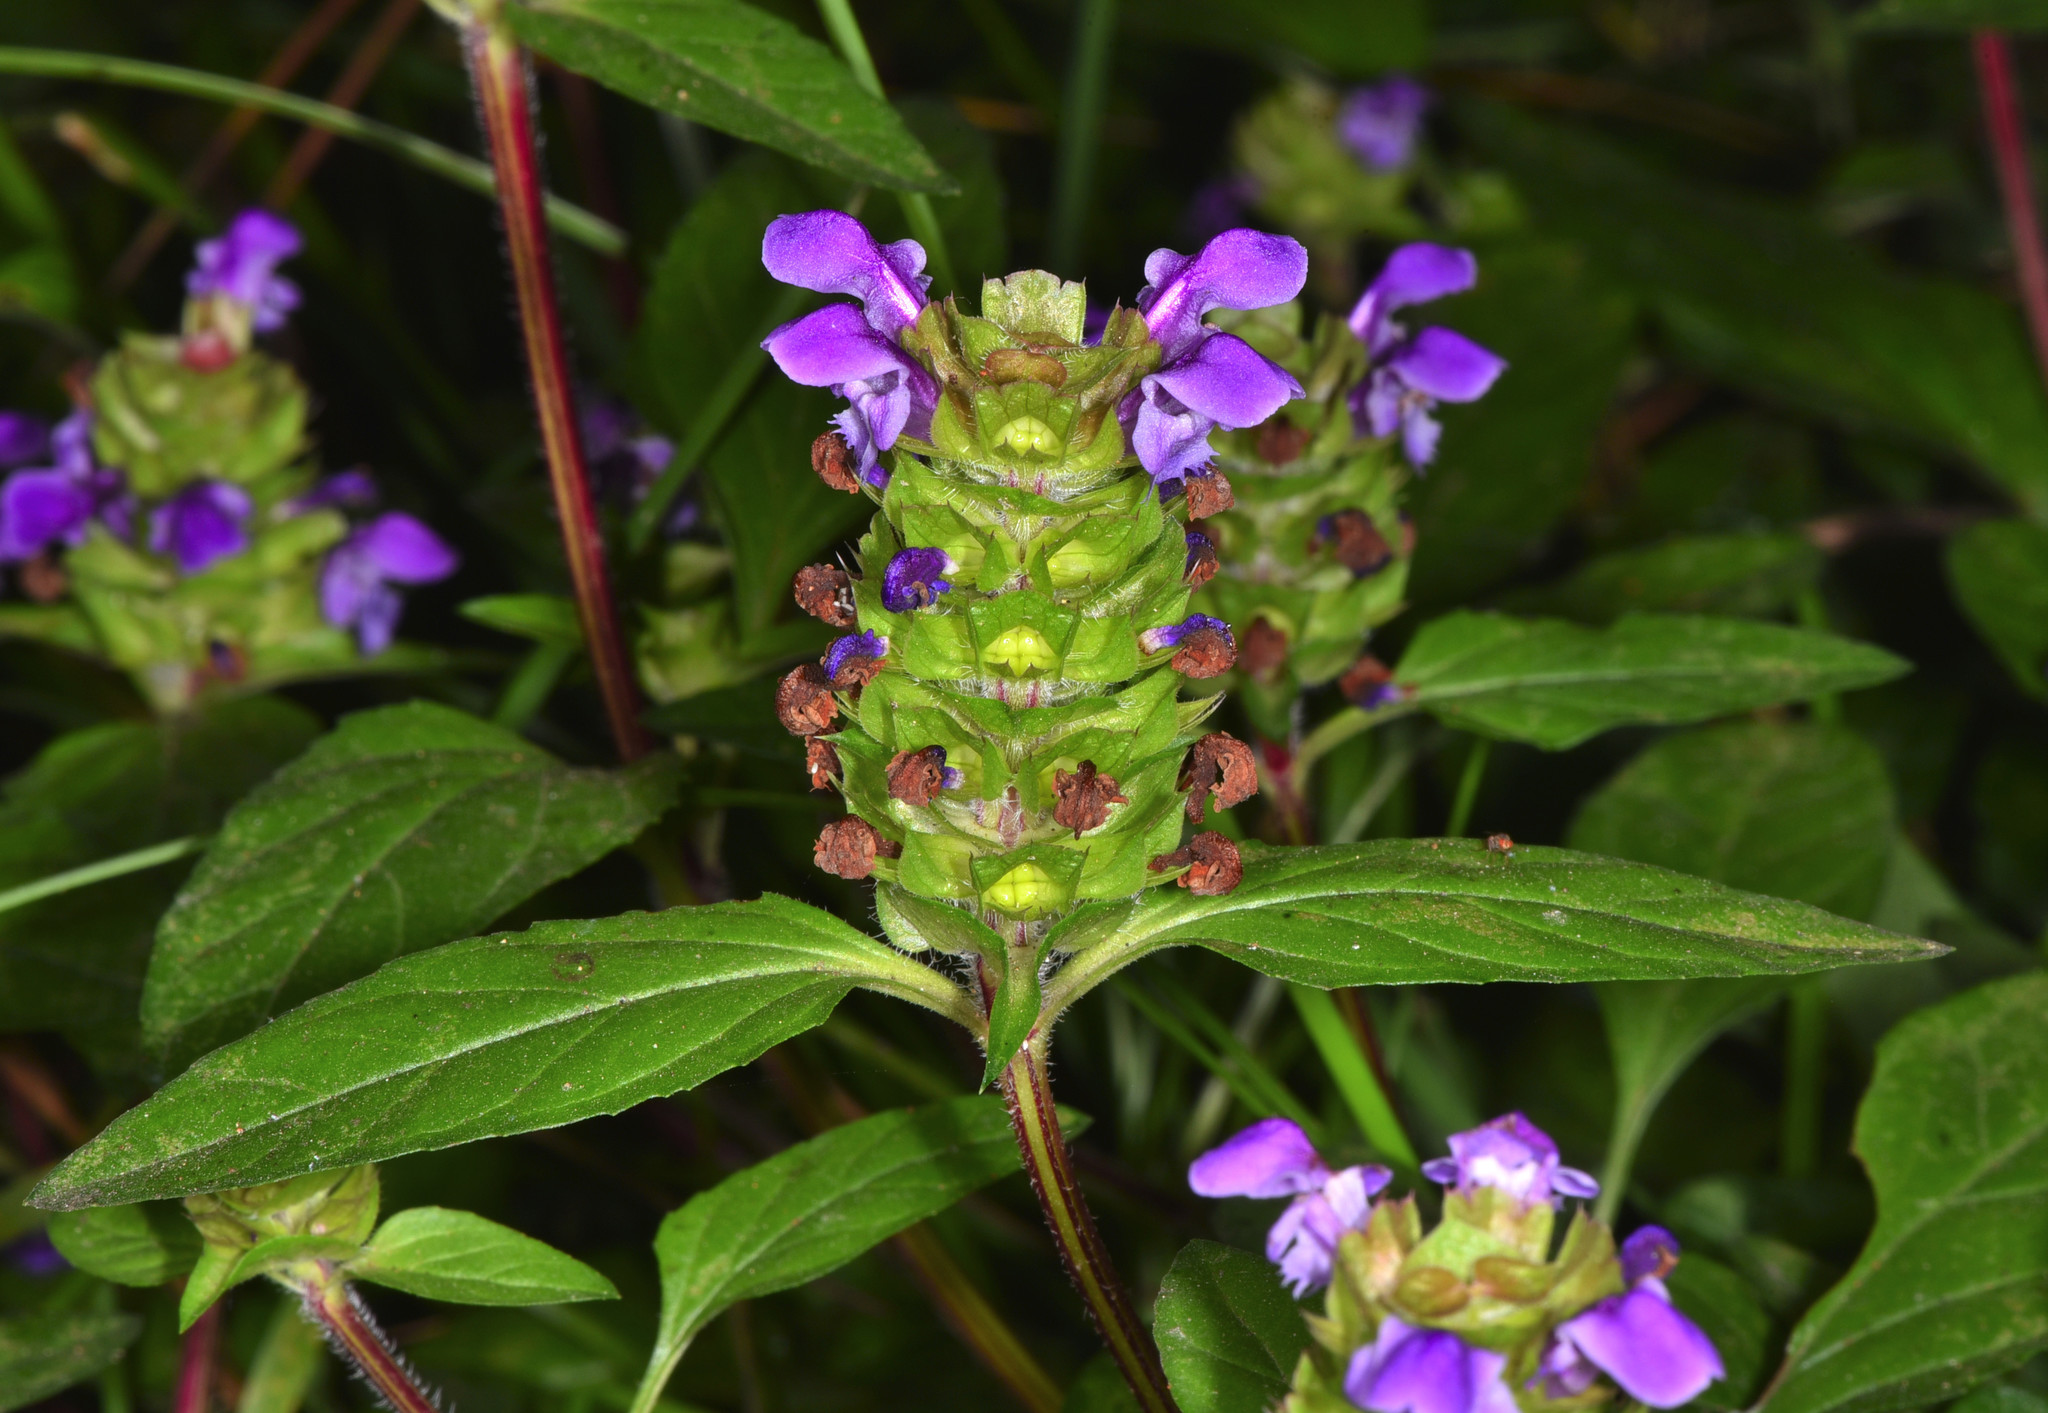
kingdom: Plantae
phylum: Tracheophyta
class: Magnoliopsida
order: Lamiales
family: Lamiaceae
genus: Prunella
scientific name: Prunella vulgaris
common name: Heal-all
